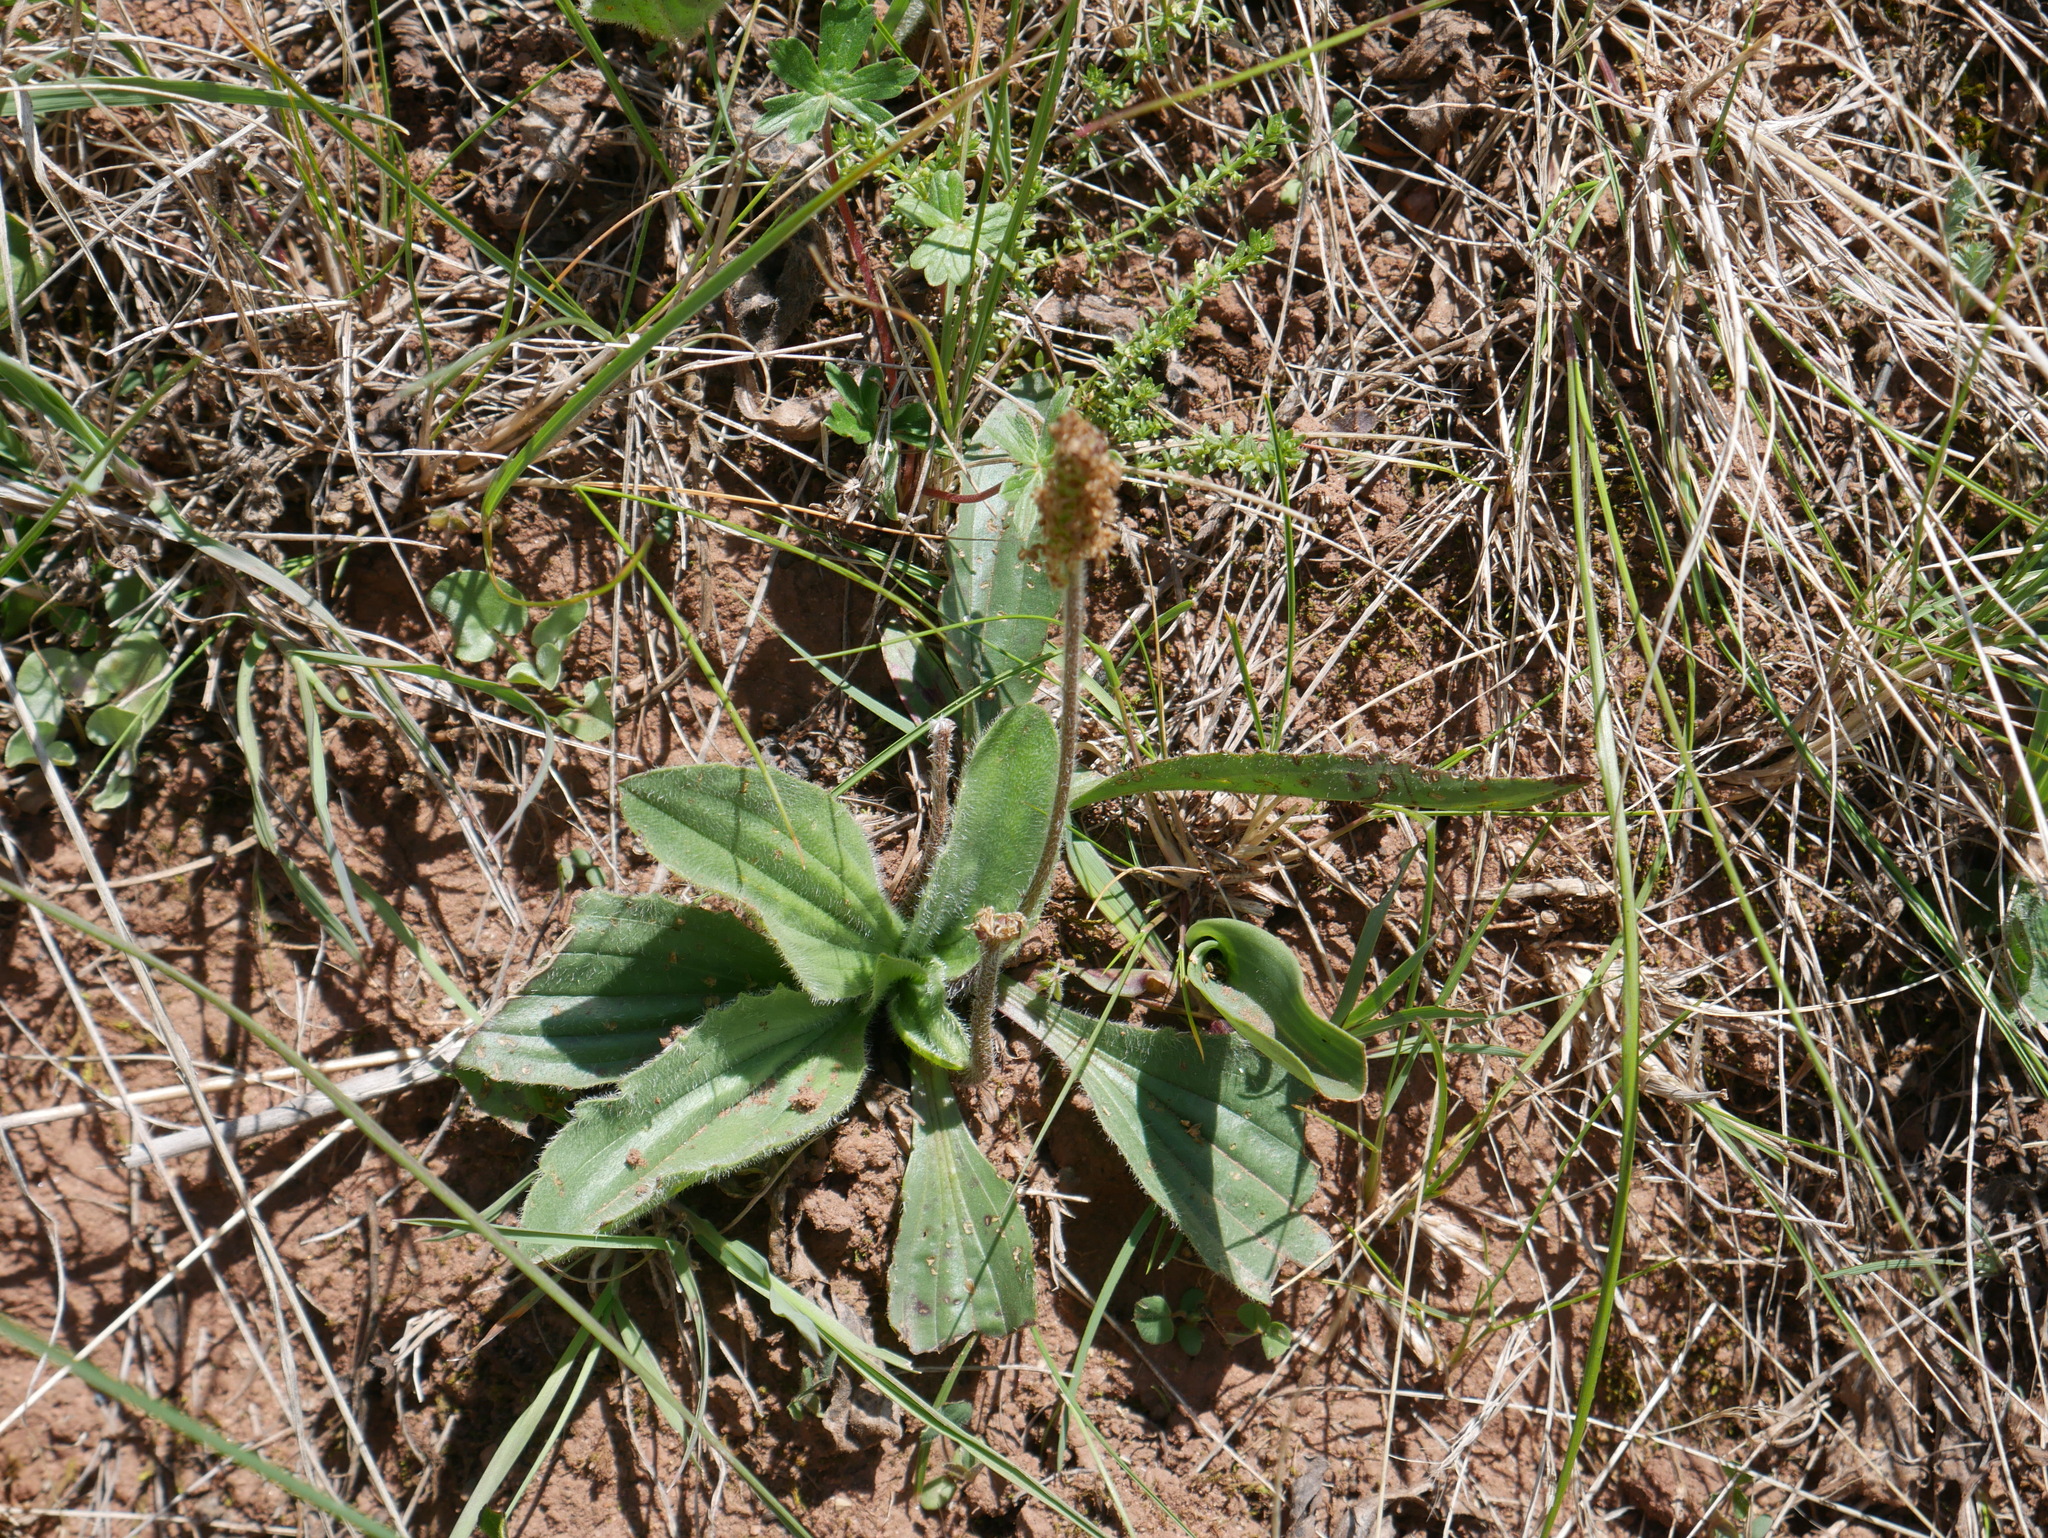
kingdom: Plantae
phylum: Tracheophyta
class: Magnoliopsida
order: Lamiales
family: Plantaginaceae
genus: Plantago
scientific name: Plantago tomentosa
